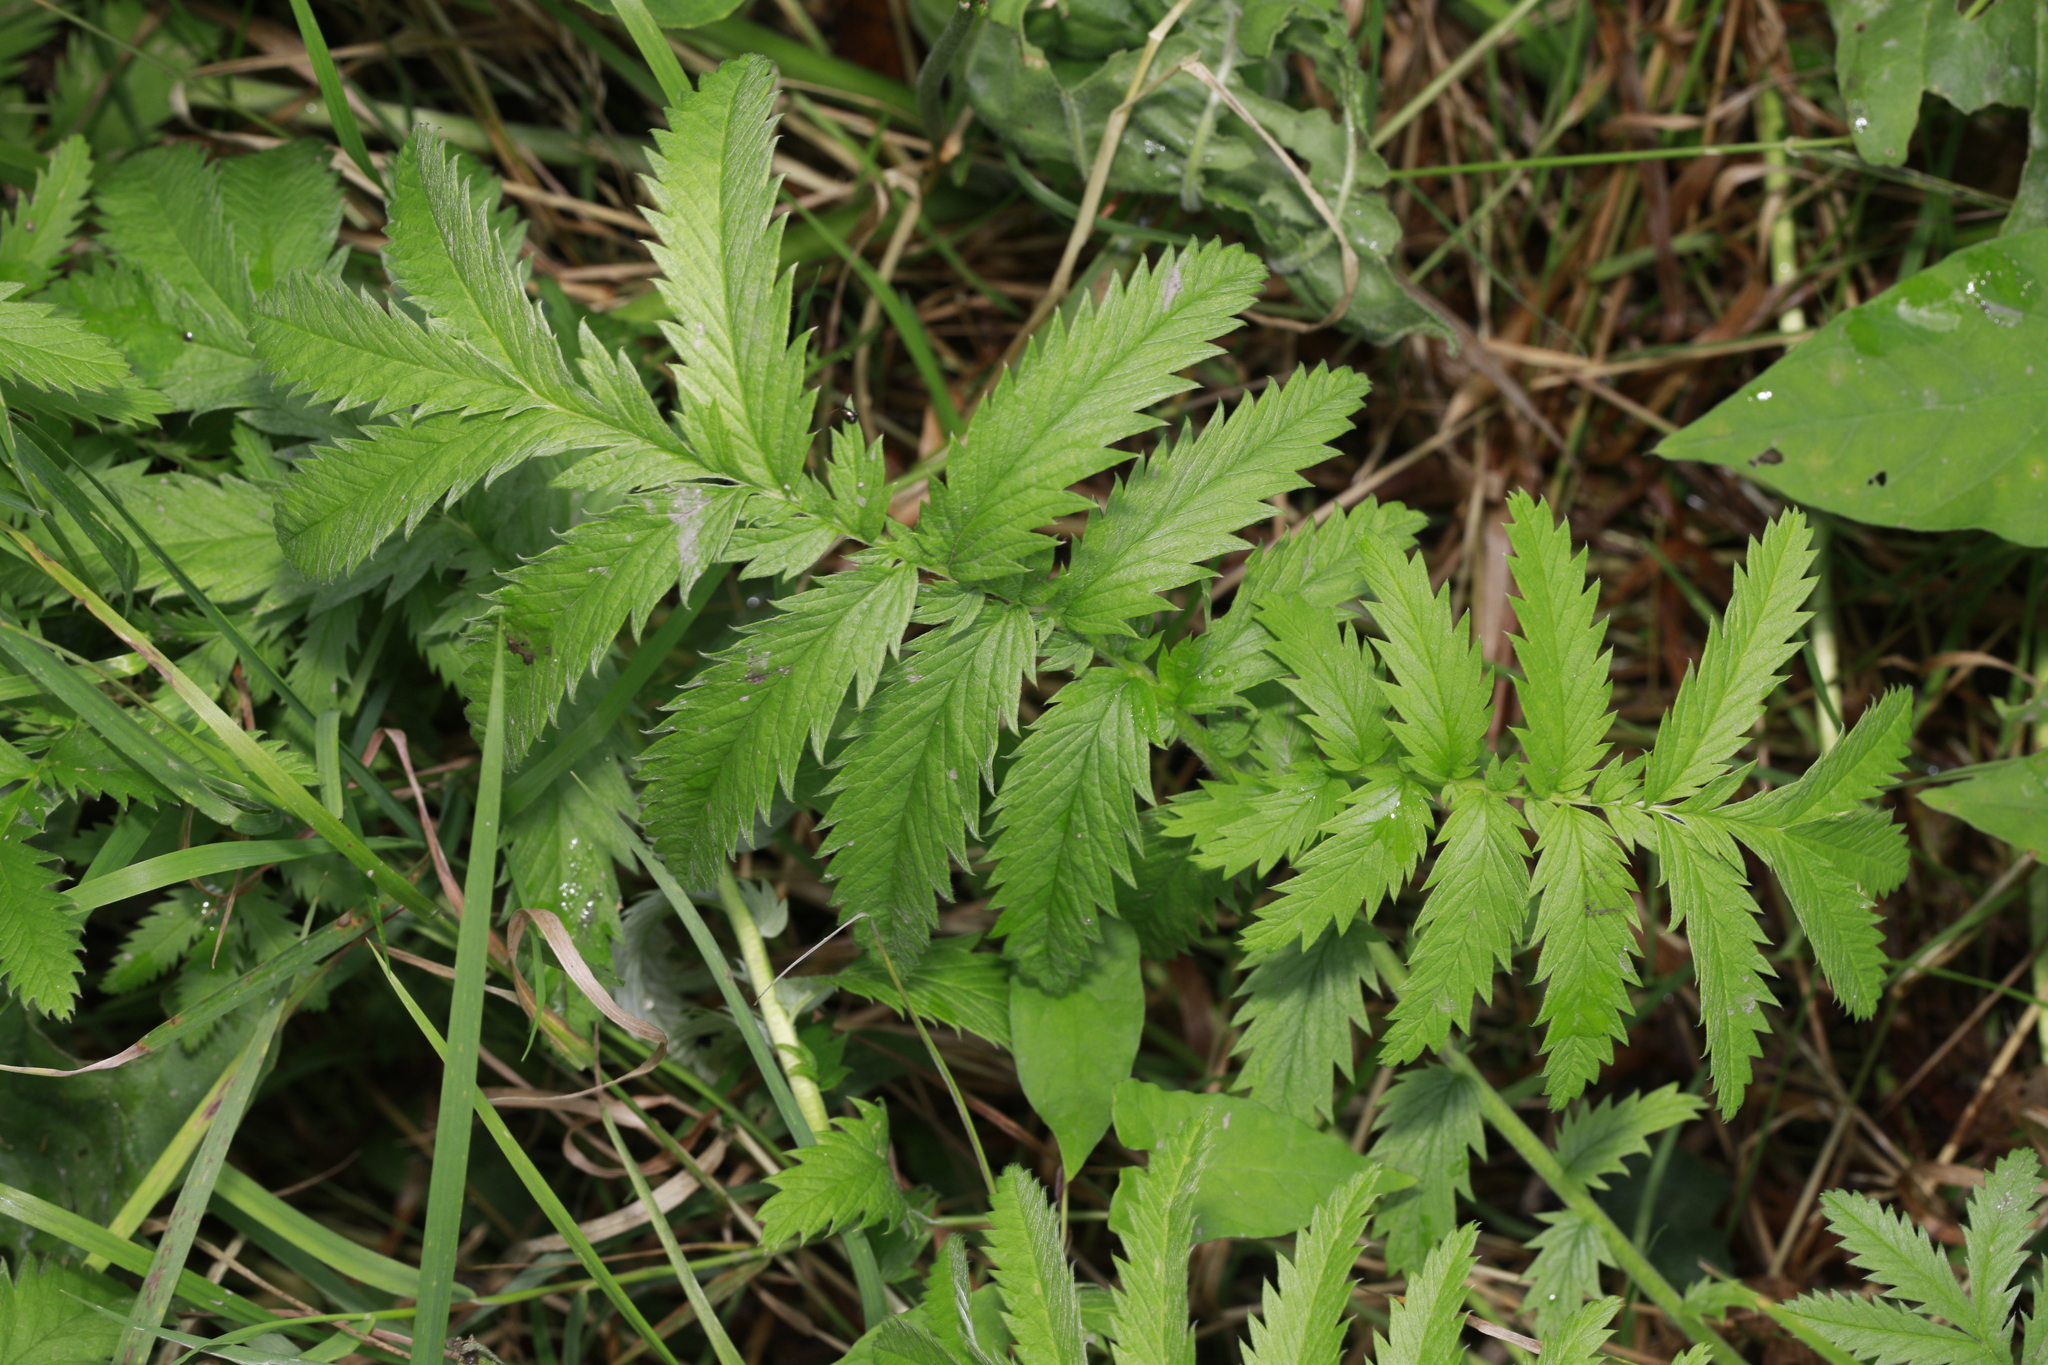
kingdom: Plantae
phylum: Tracheophyta
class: Magnoliopsida
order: Rosales
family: Rosaceae
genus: Argentina
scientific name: Argentina anserina
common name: Common silverweed
